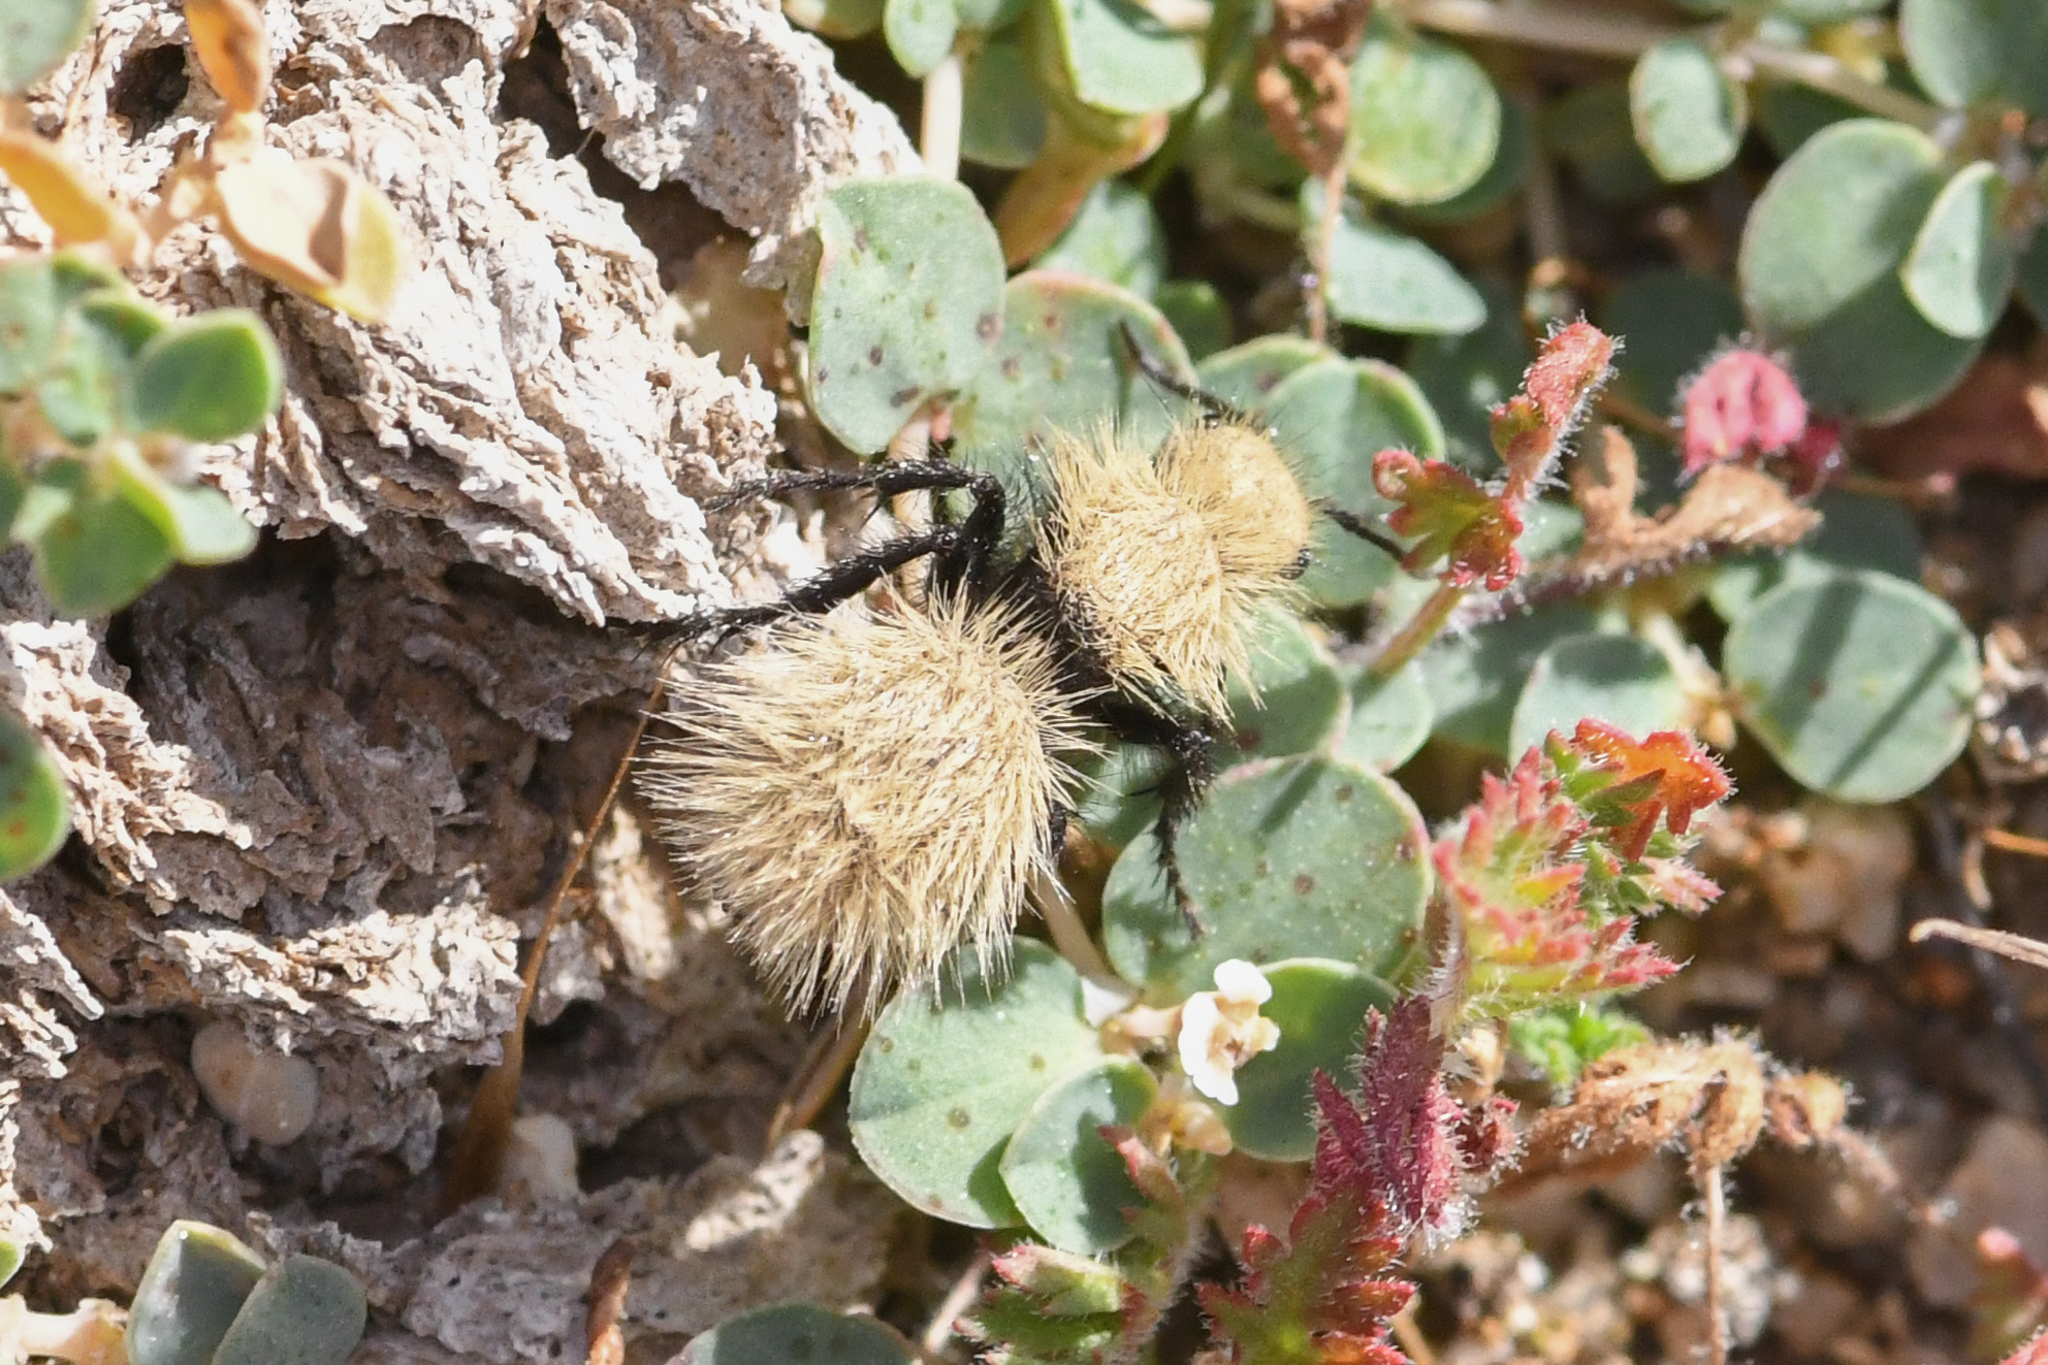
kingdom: Animalia
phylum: Arthropoda
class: Insecta
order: Hymenoptera
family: Mutillidae
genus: Dasymutilla
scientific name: Dasymutilla
